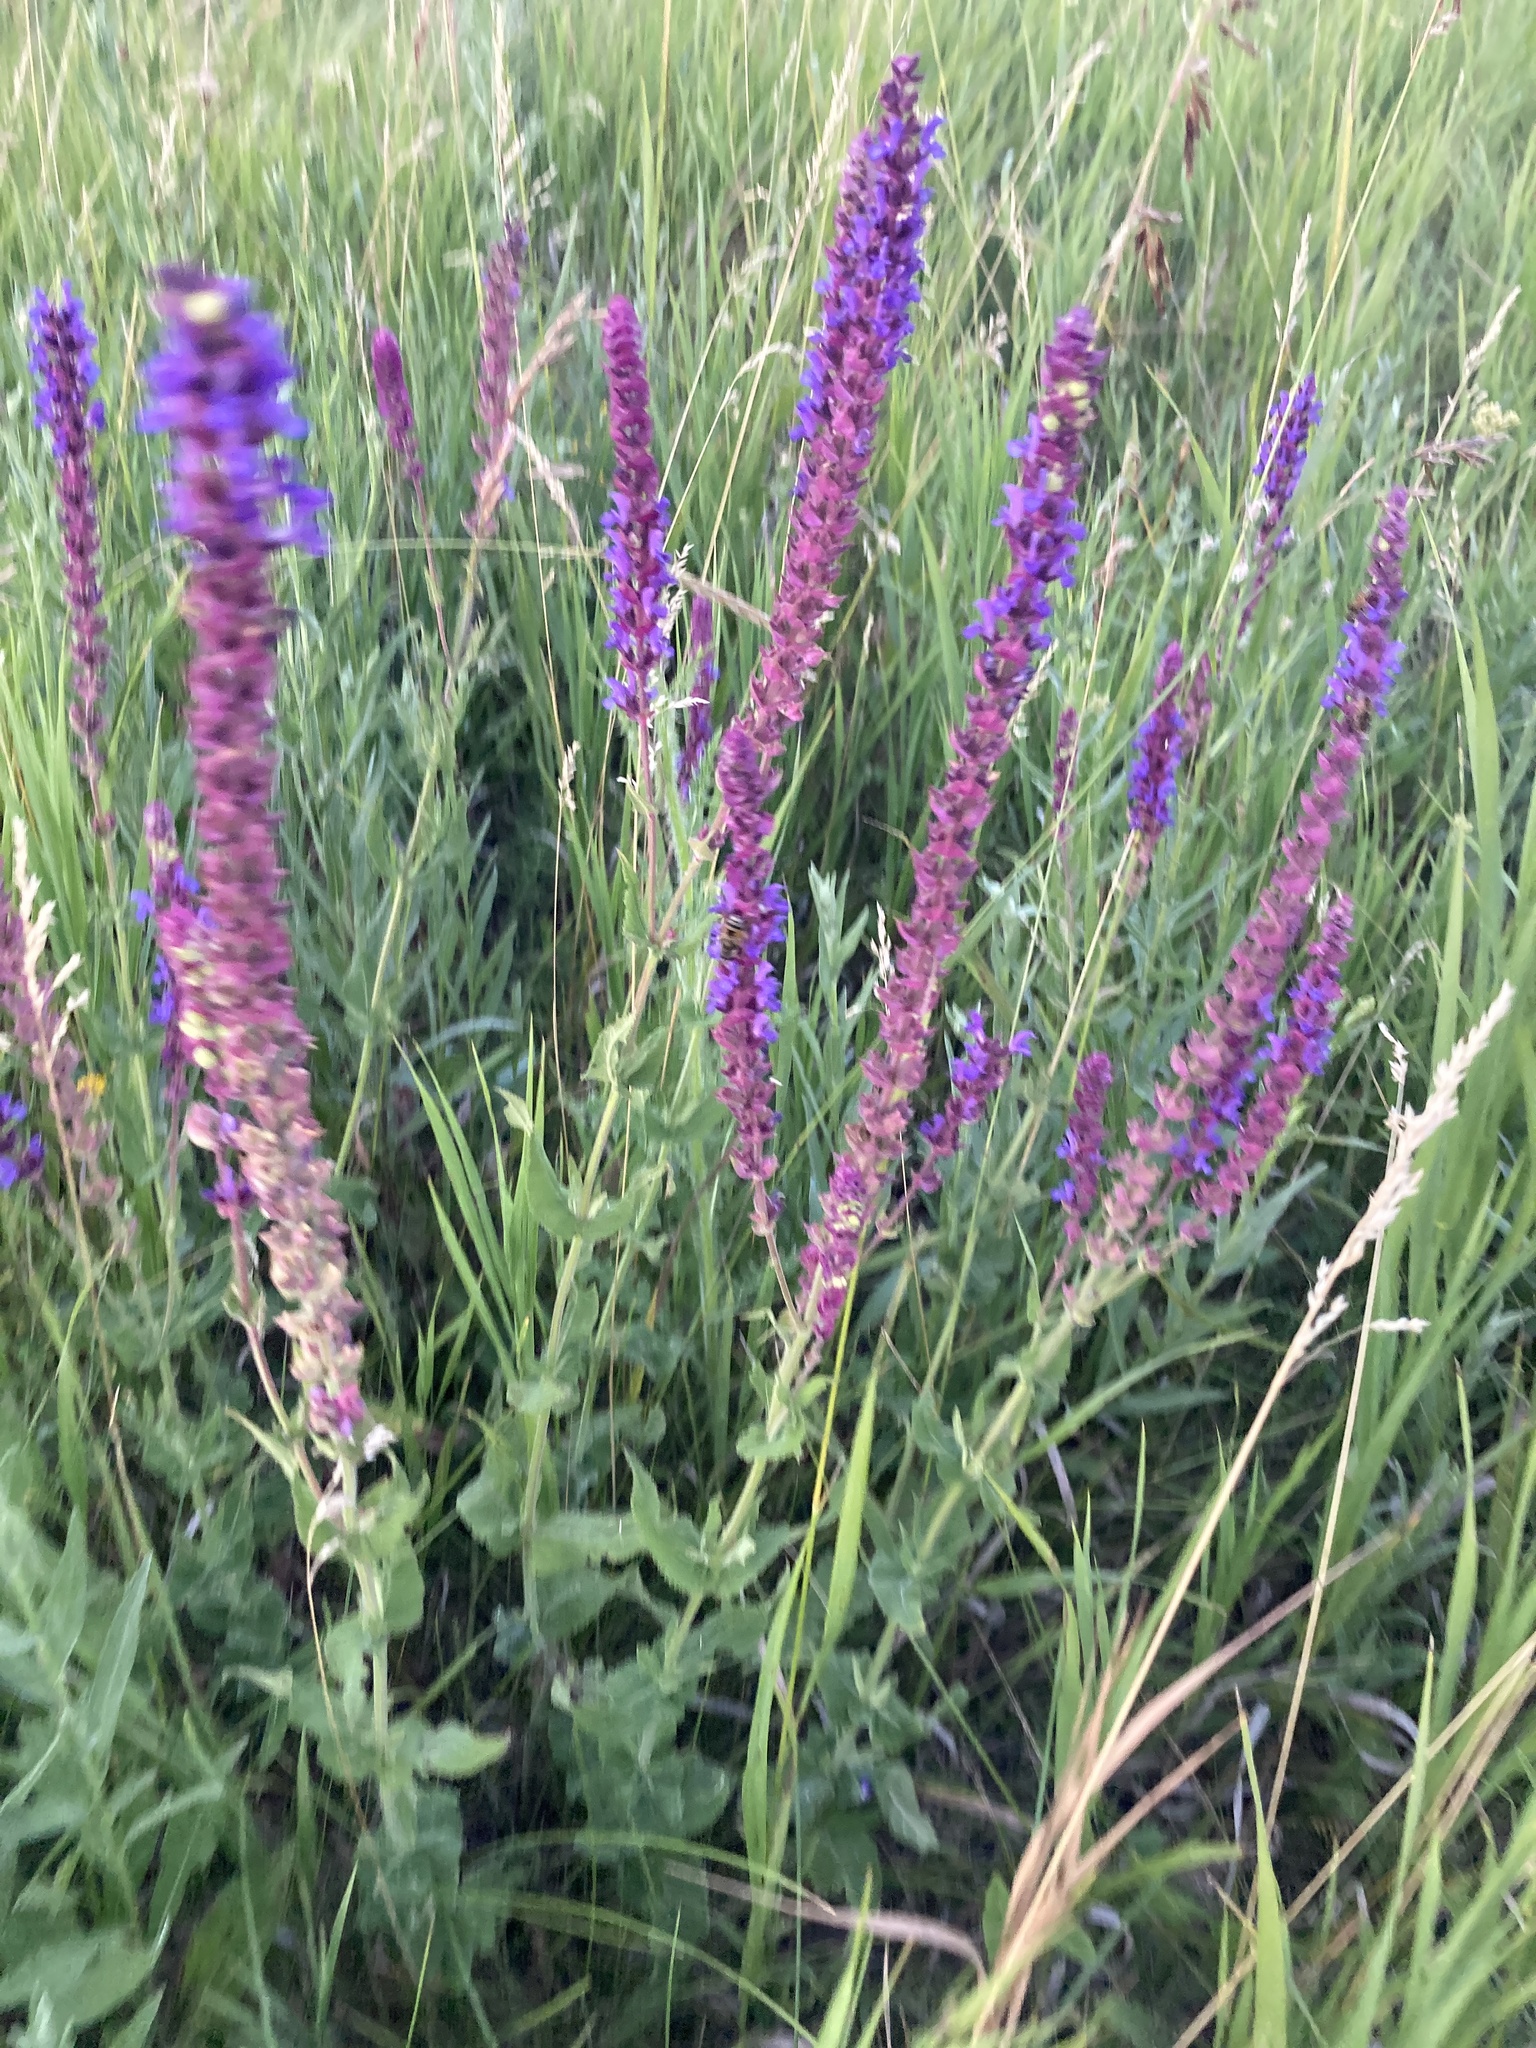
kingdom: Plantae
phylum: Tracheophyta
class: Magnoliopsida
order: Lamiales
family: Lamiaceae
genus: Salvia
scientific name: Salvia nemorosa
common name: Balkan clary
